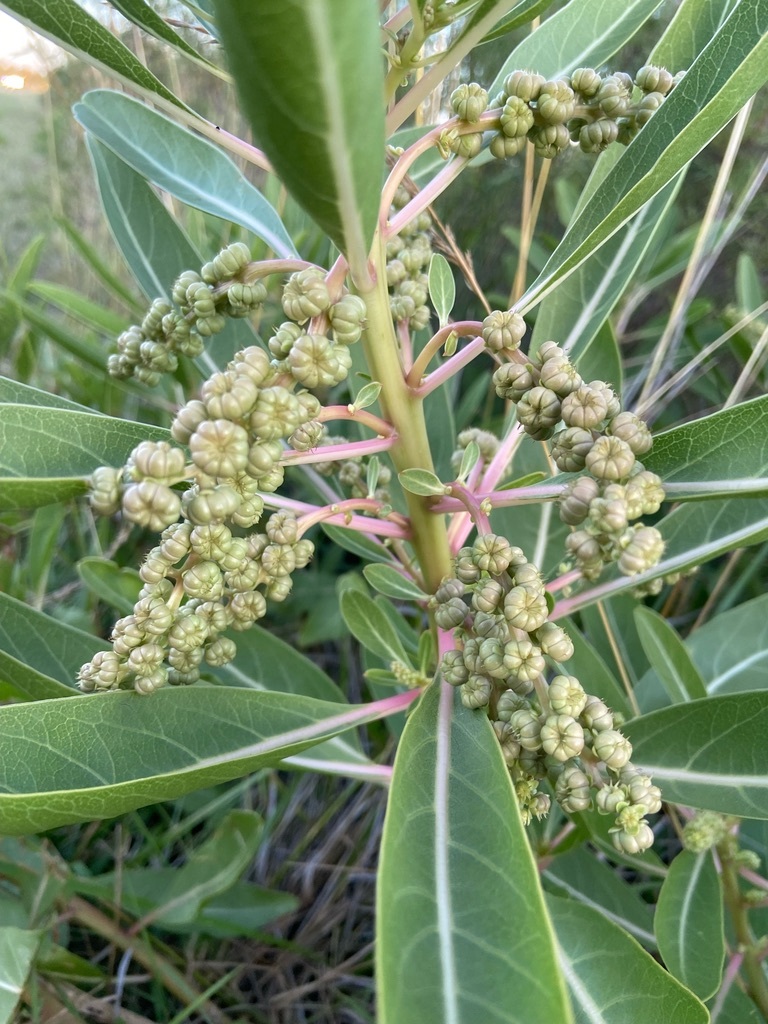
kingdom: Plantae
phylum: Tracheophyta
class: Magnoliopsida
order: Caryophyllales
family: Phytolaccaceae
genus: Phytolacca
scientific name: Phytolacca tetramera
